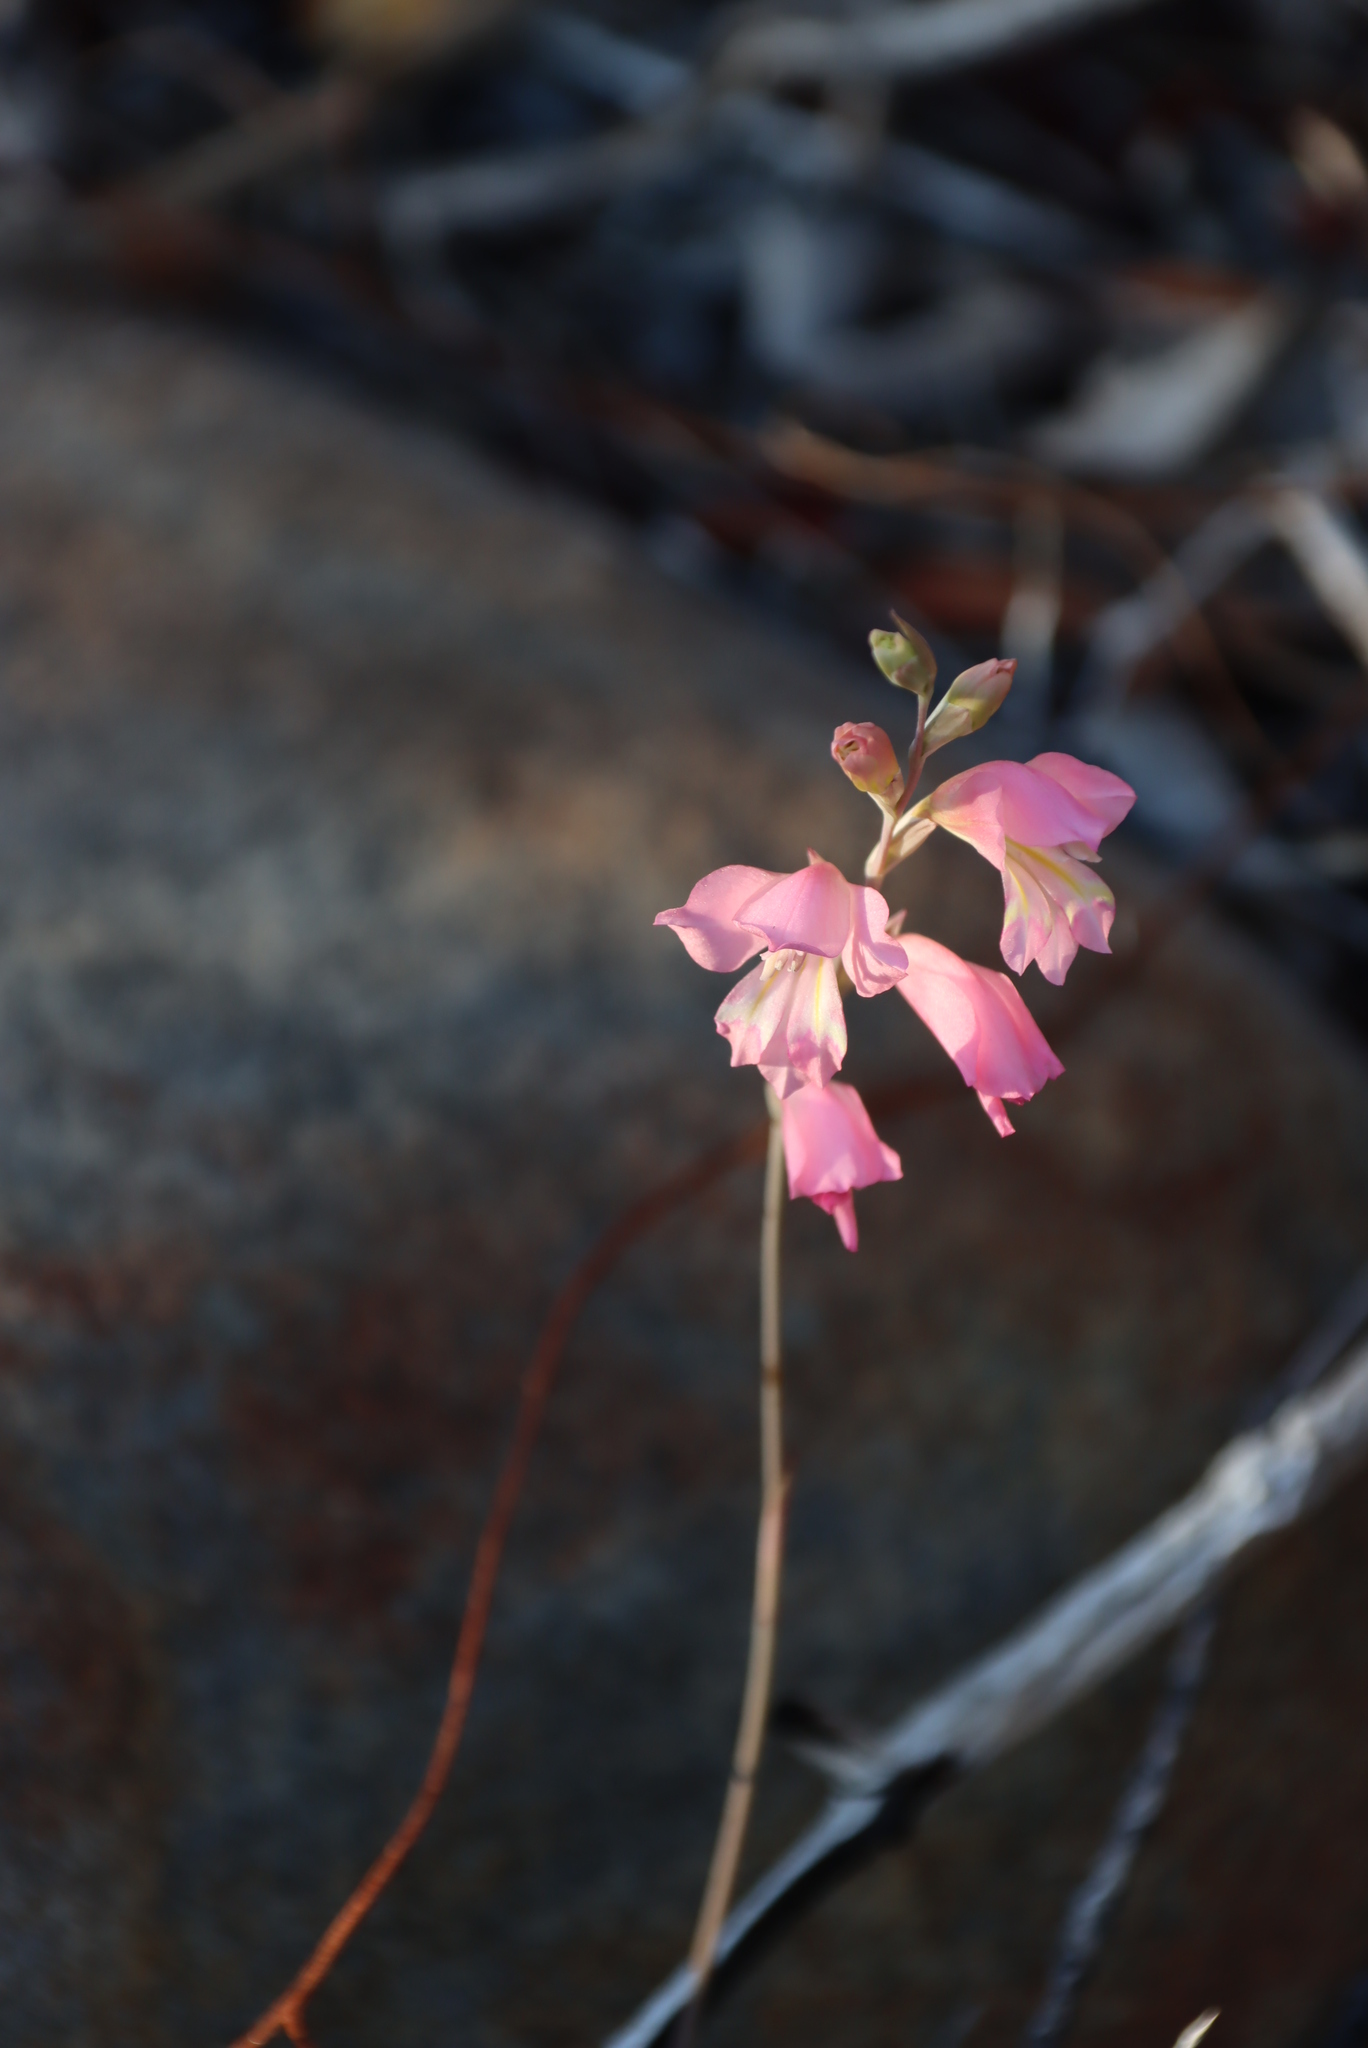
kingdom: Plantae
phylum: Tracheophyta
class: Liliopsida
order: Asparagales
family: Iridaceae
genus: Gladiolus
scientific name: Gladiolus brevifolius
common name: March pypie
